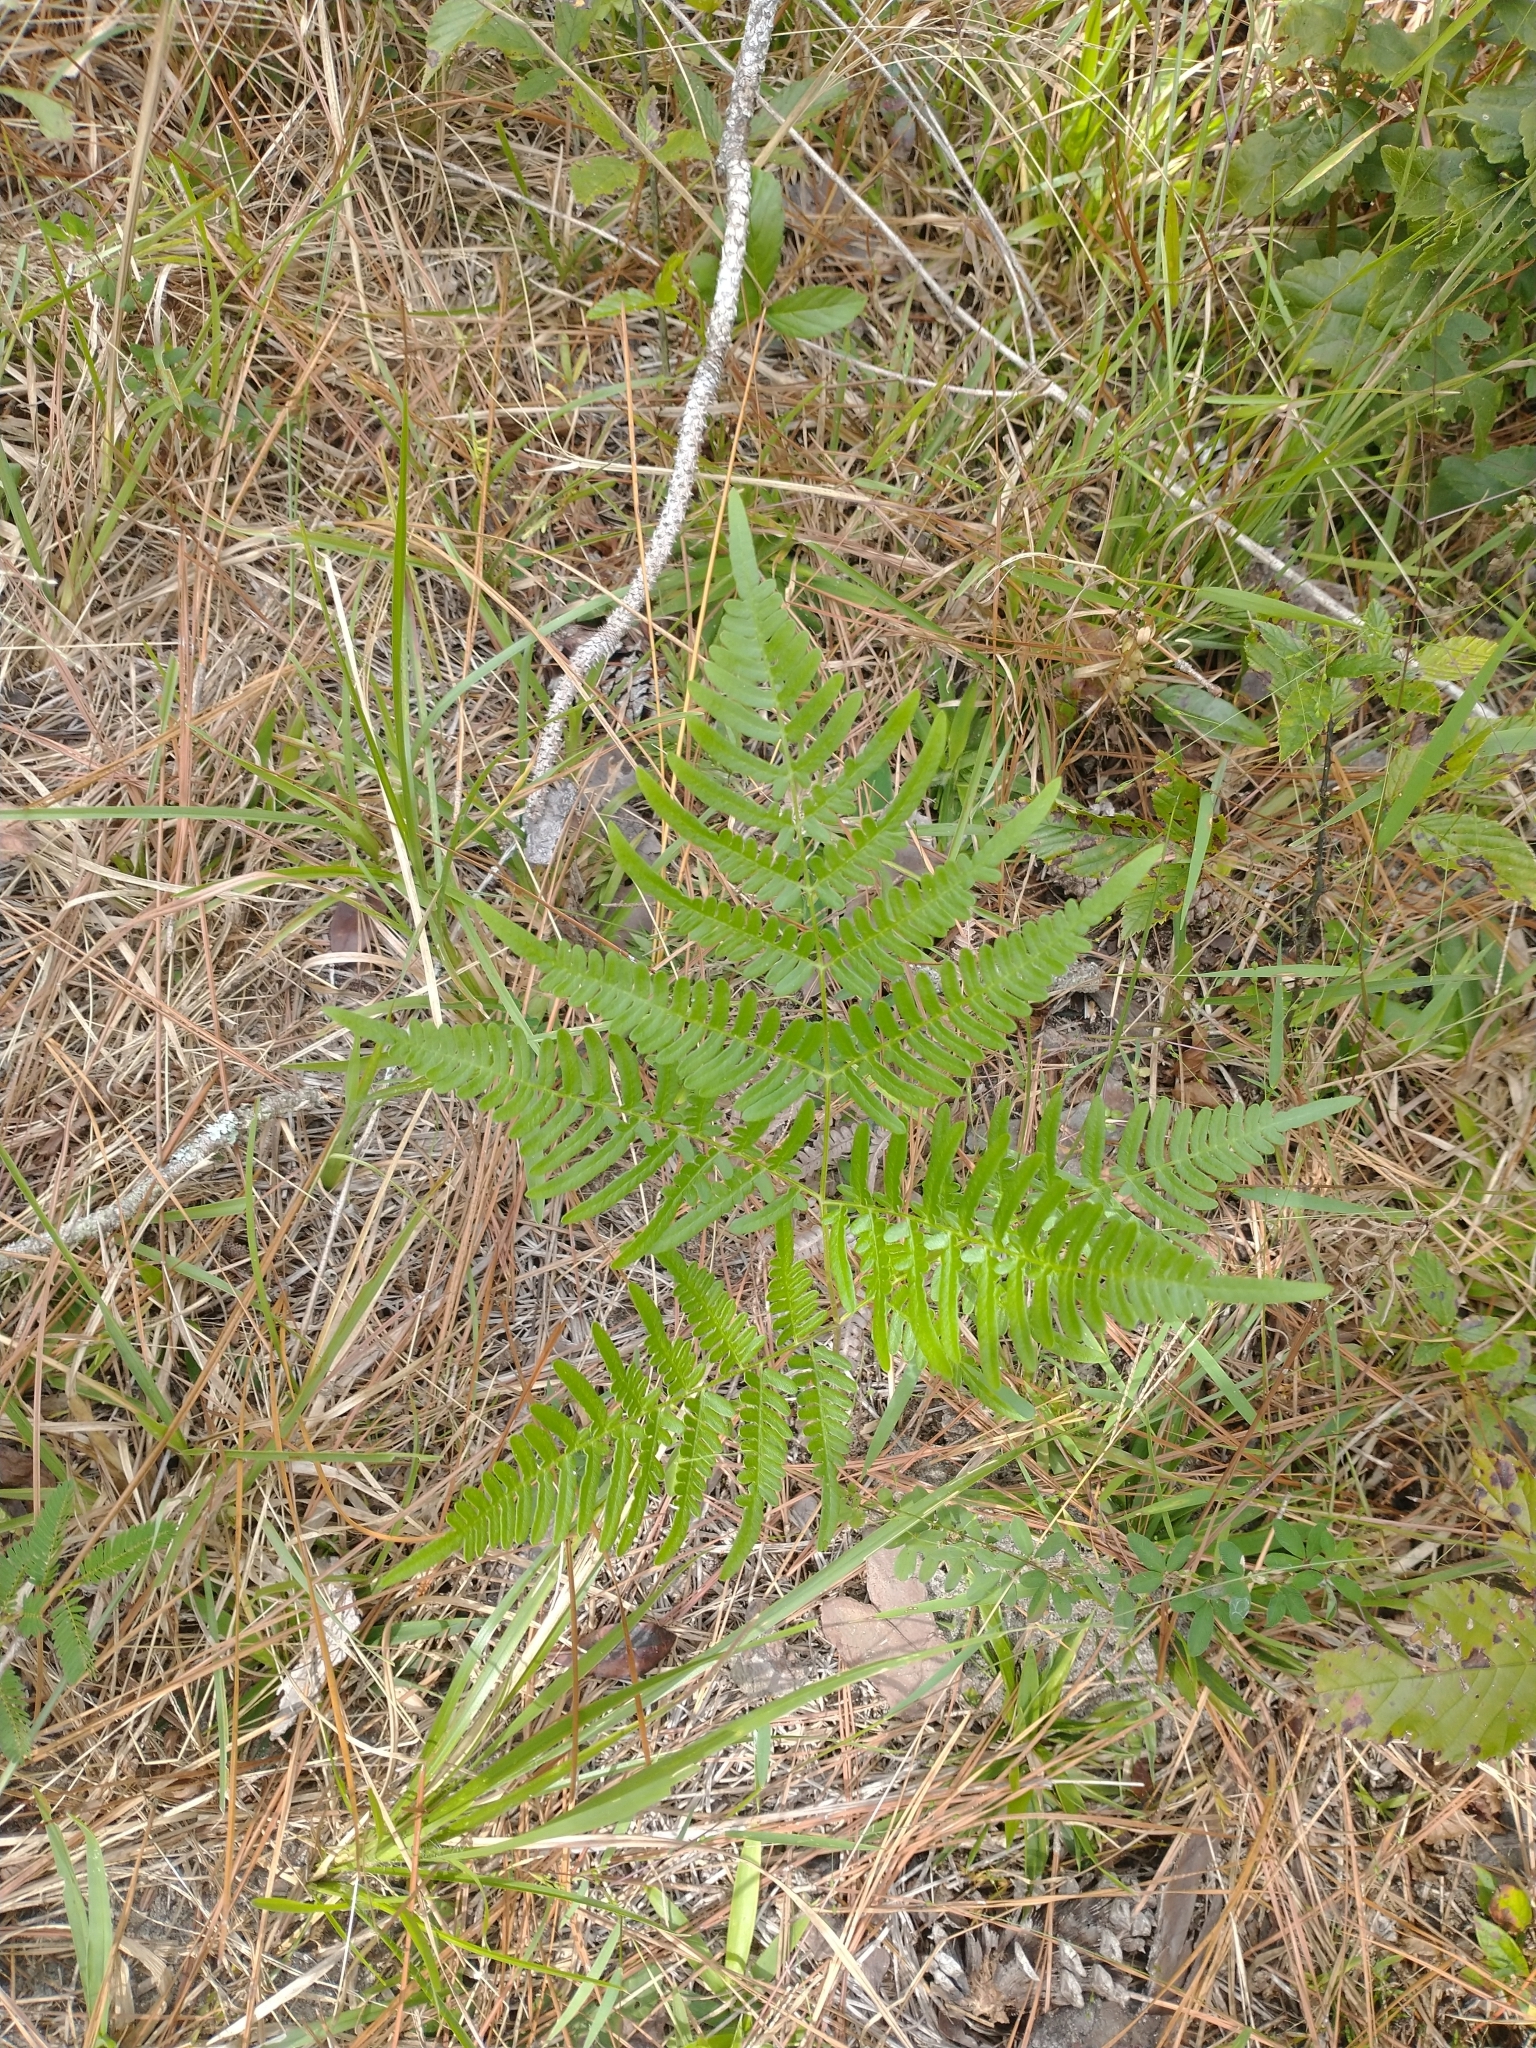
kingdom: Plantae
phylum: Tracheophyta
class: Polypodiopsida
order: Polypodiales
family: Dennstaedtiaceae
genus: Pteridium
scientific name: Pteridium aquilinum
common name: Bracken
